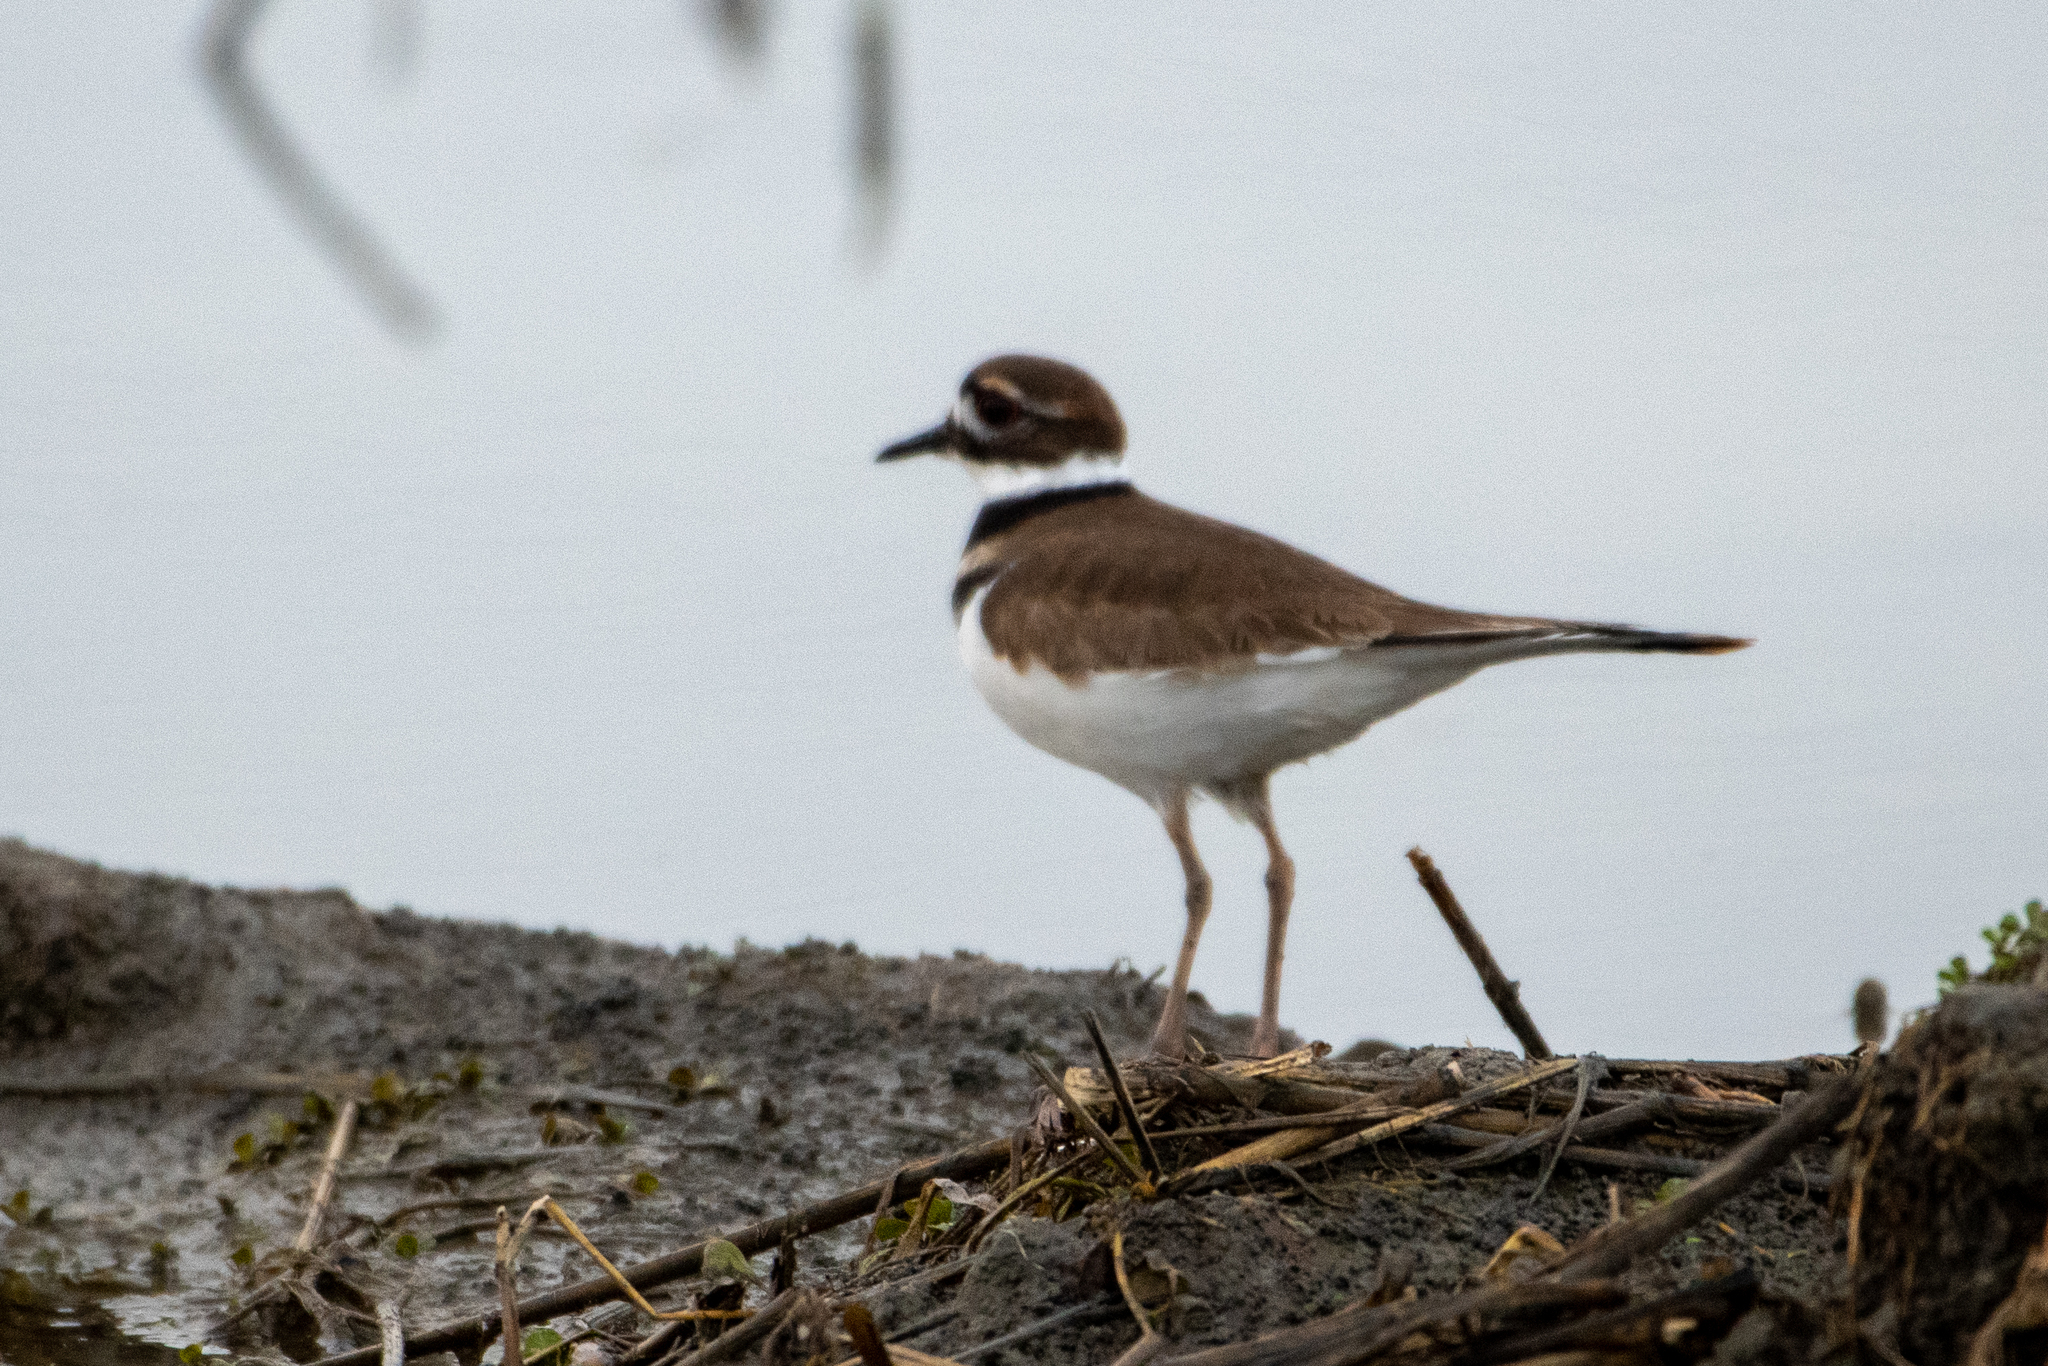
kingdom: Animalia
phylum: Chordata
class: Aves
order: Charadriiformes
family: Charadriidae
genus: Charadrius
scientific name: Charadrius vociferus
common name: Killdeer
